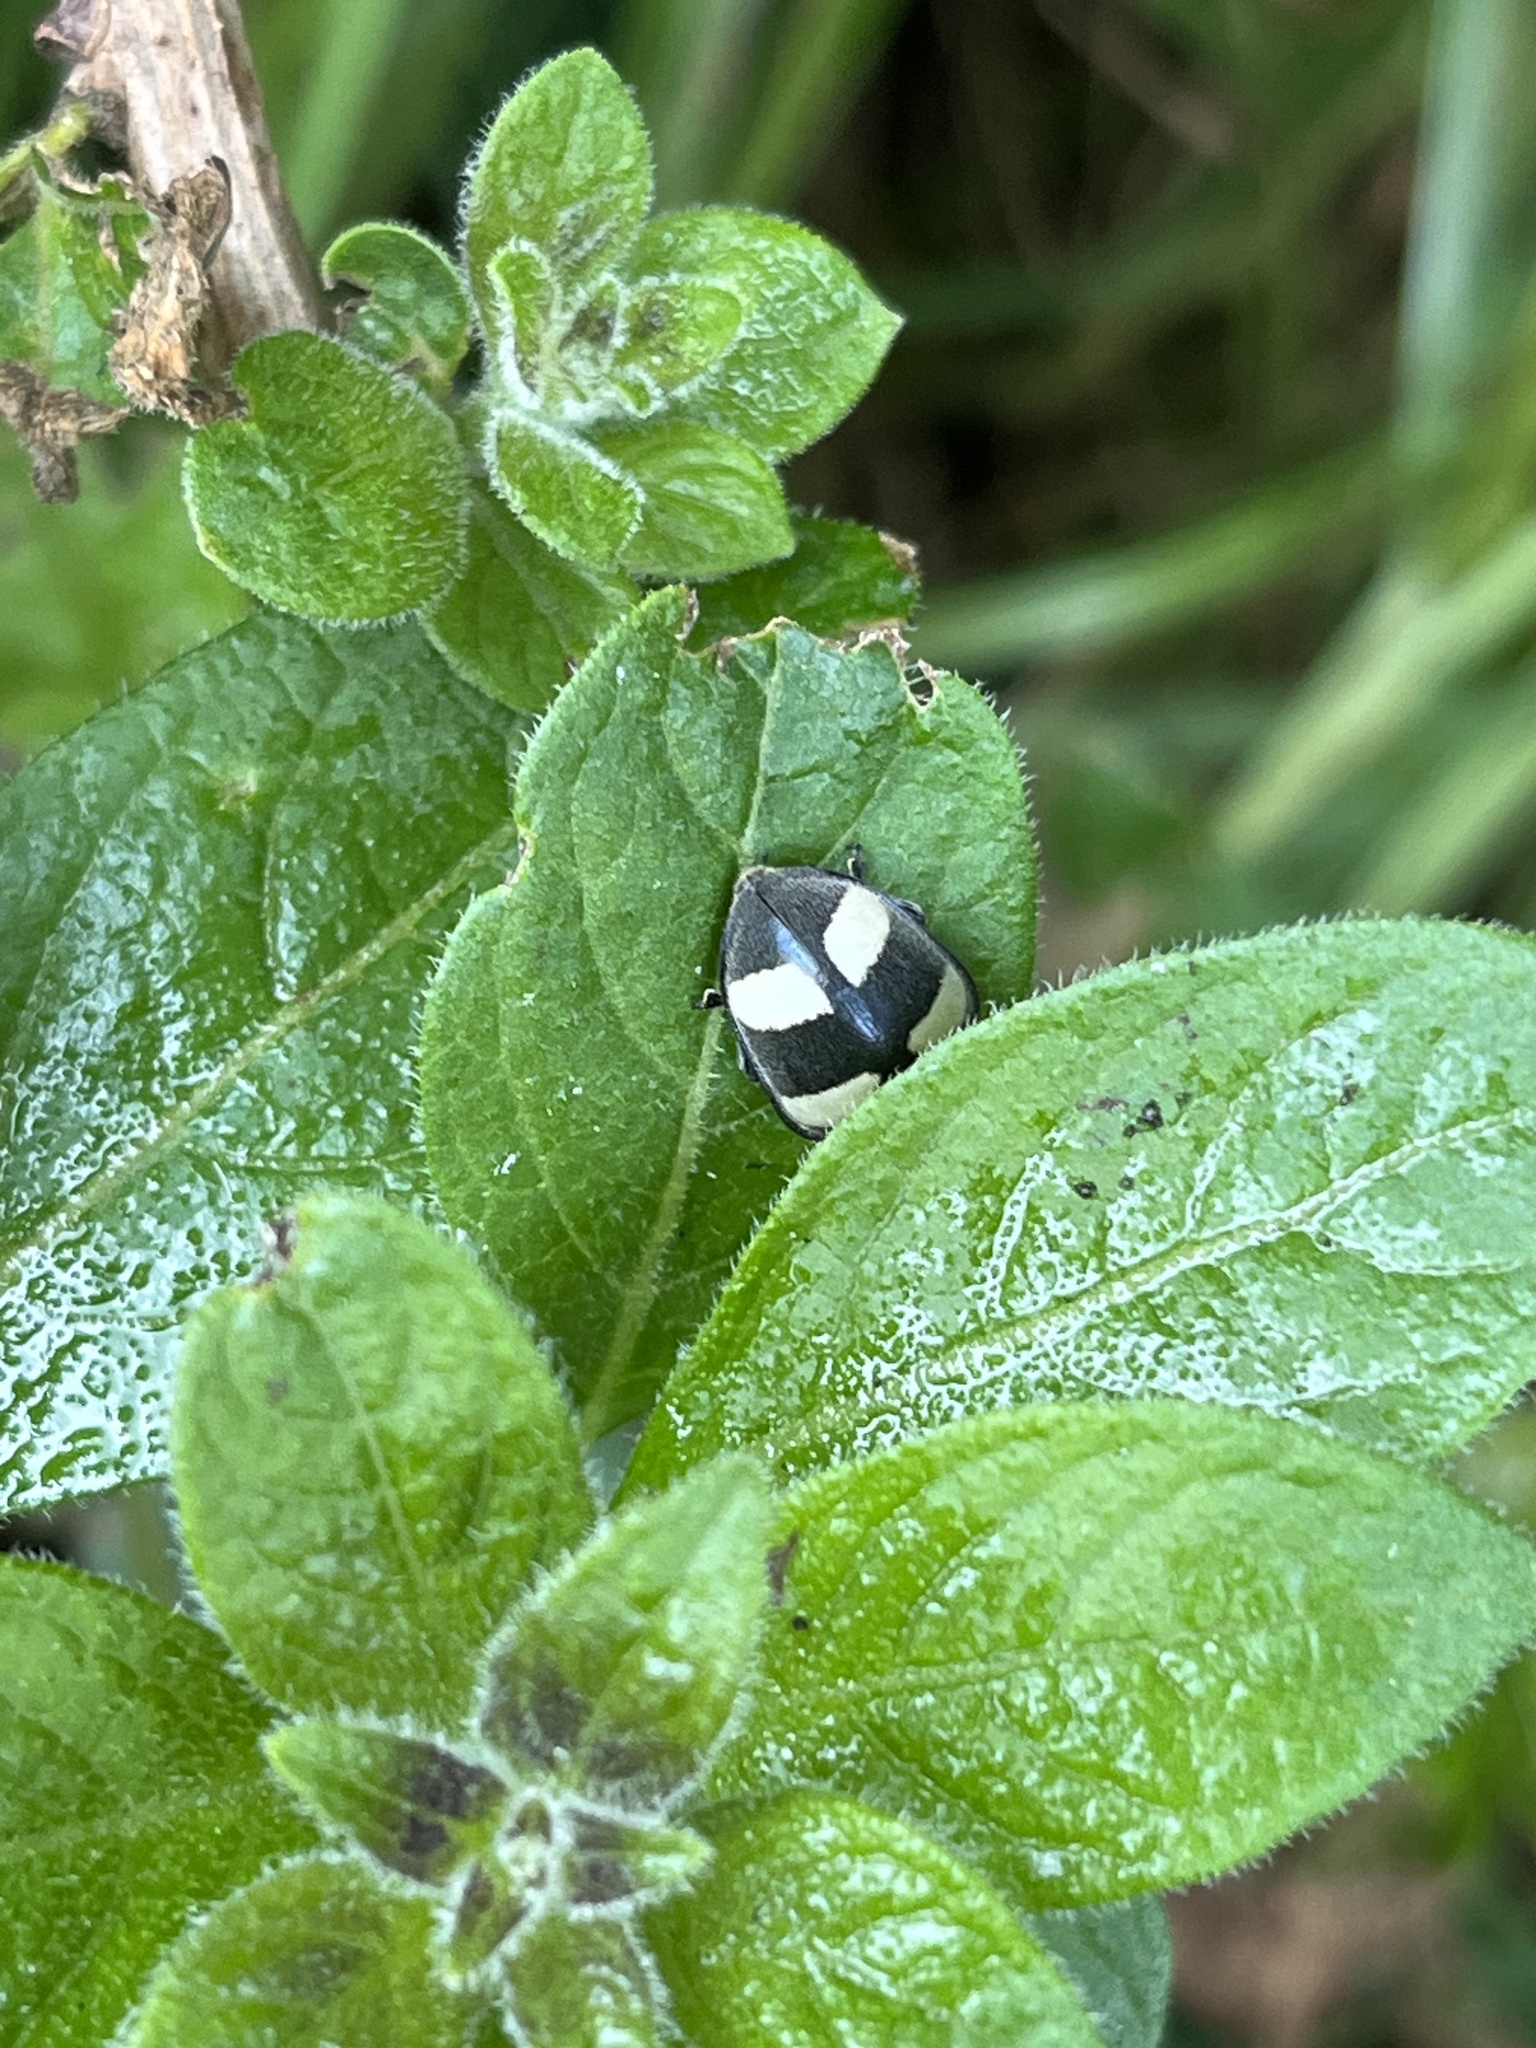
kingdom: Animalia
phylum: Arthropoda
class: Insecta
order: Coleoptera
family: Coccinellidae
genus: Toxotoma
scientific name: Toxotoma flavofasciata
